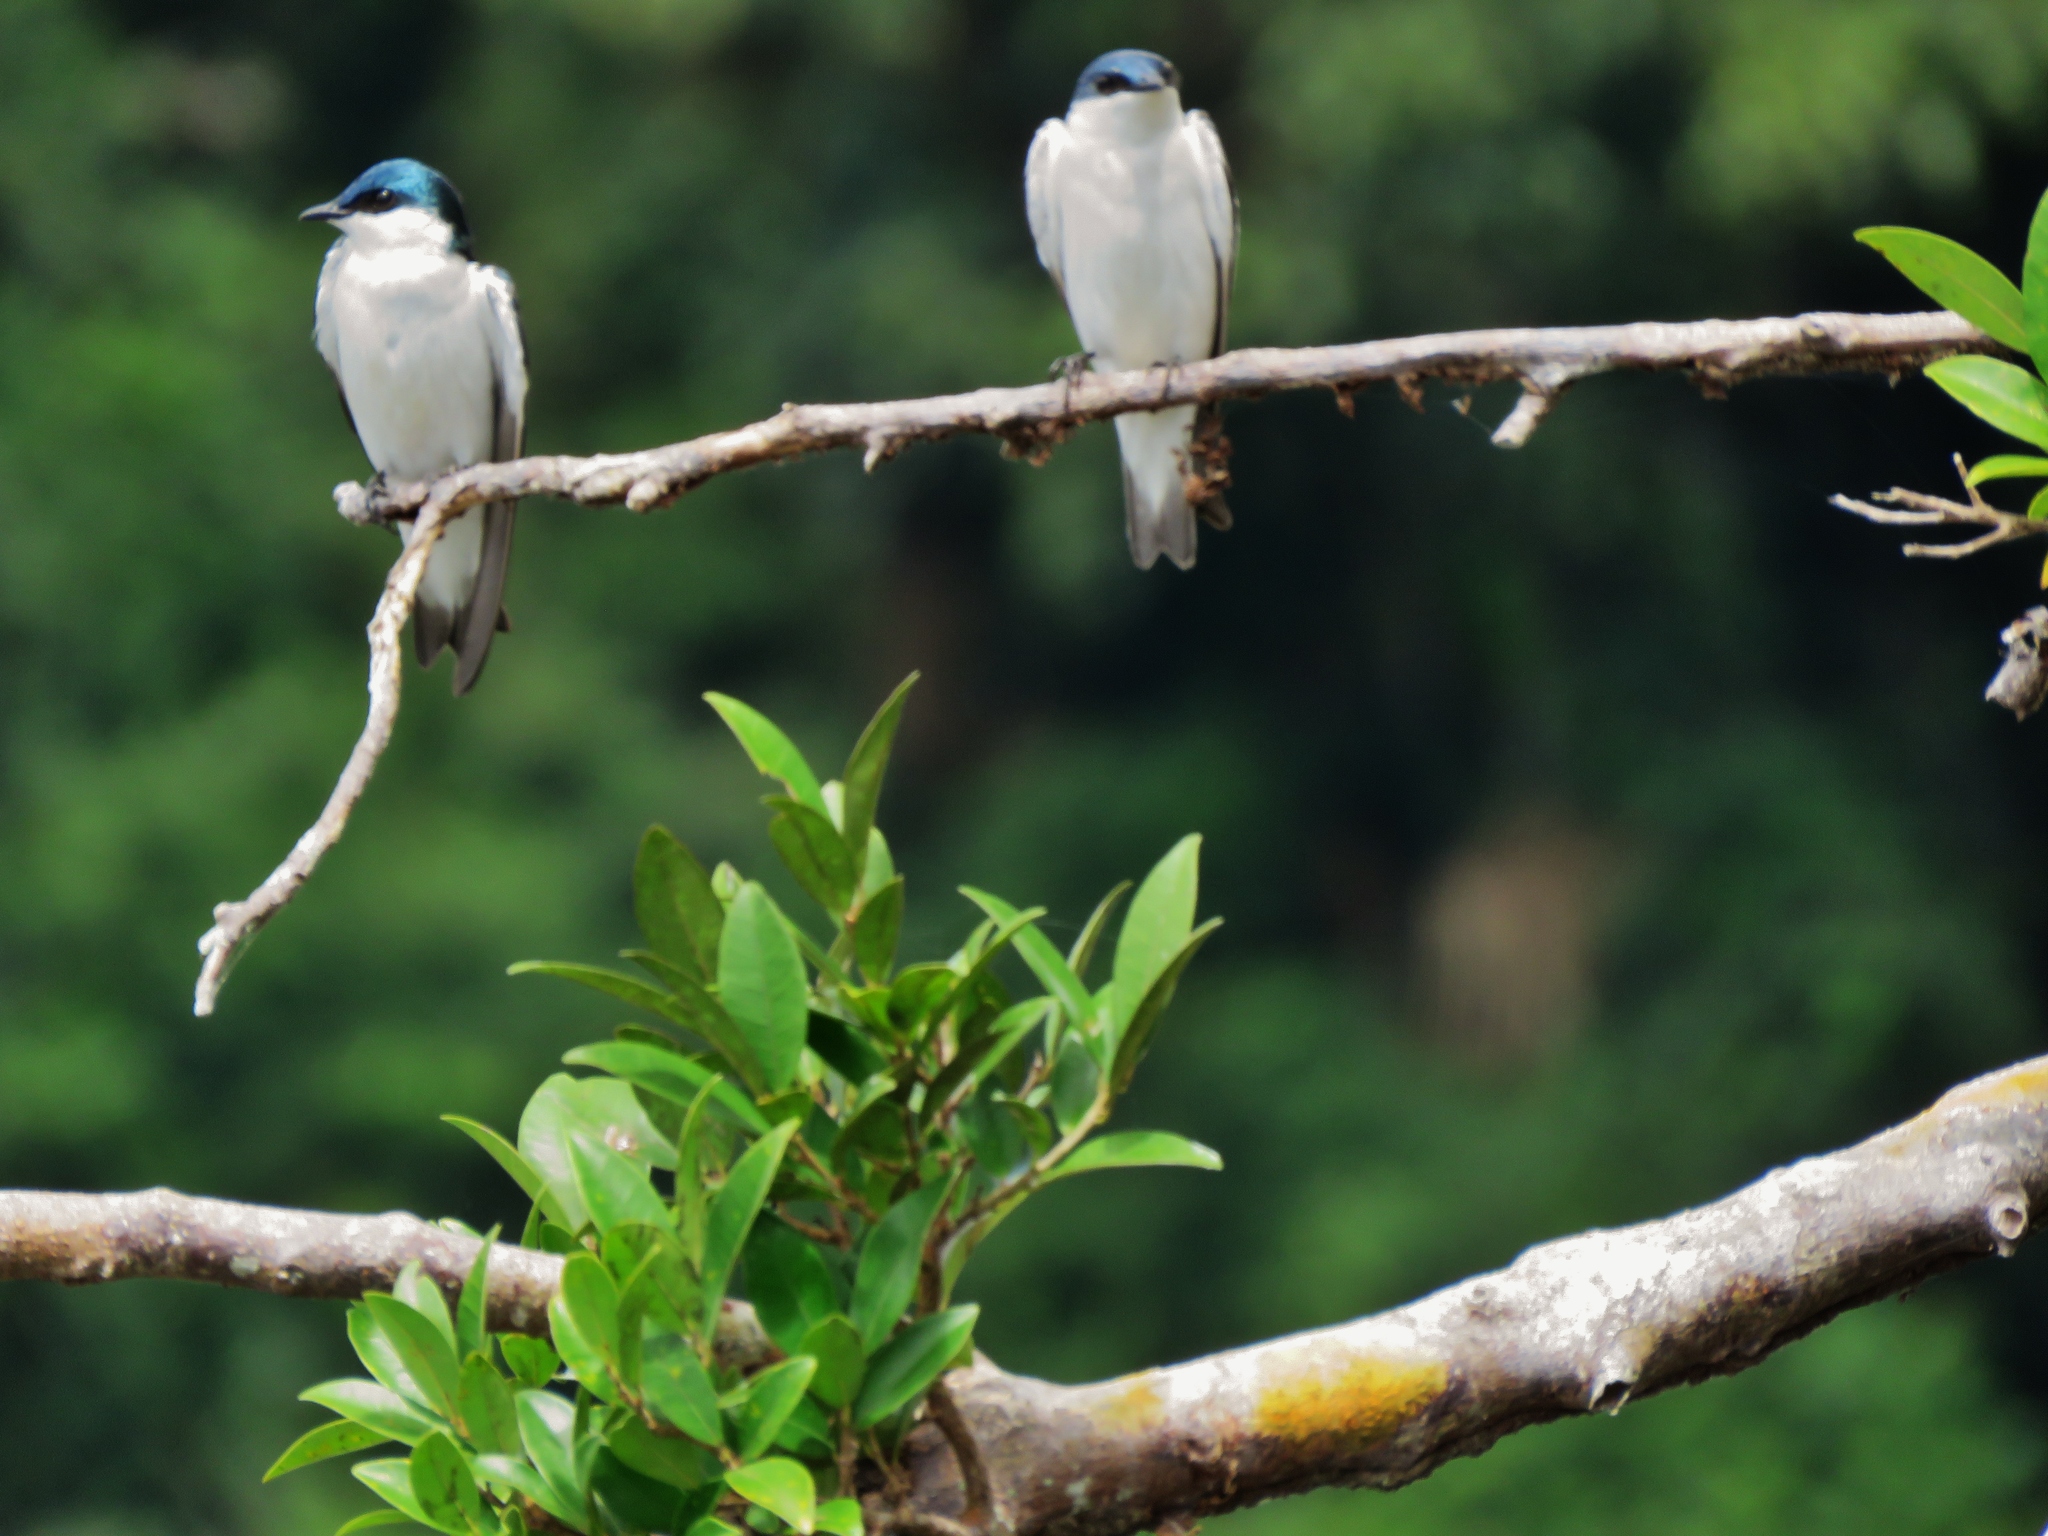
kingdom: Animalia
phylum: Chordata
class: Aves
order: Passeriformes
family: Hirundinidae
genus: Tachycineta
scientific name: Tachycineta albiventer
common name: White-winged swallow
